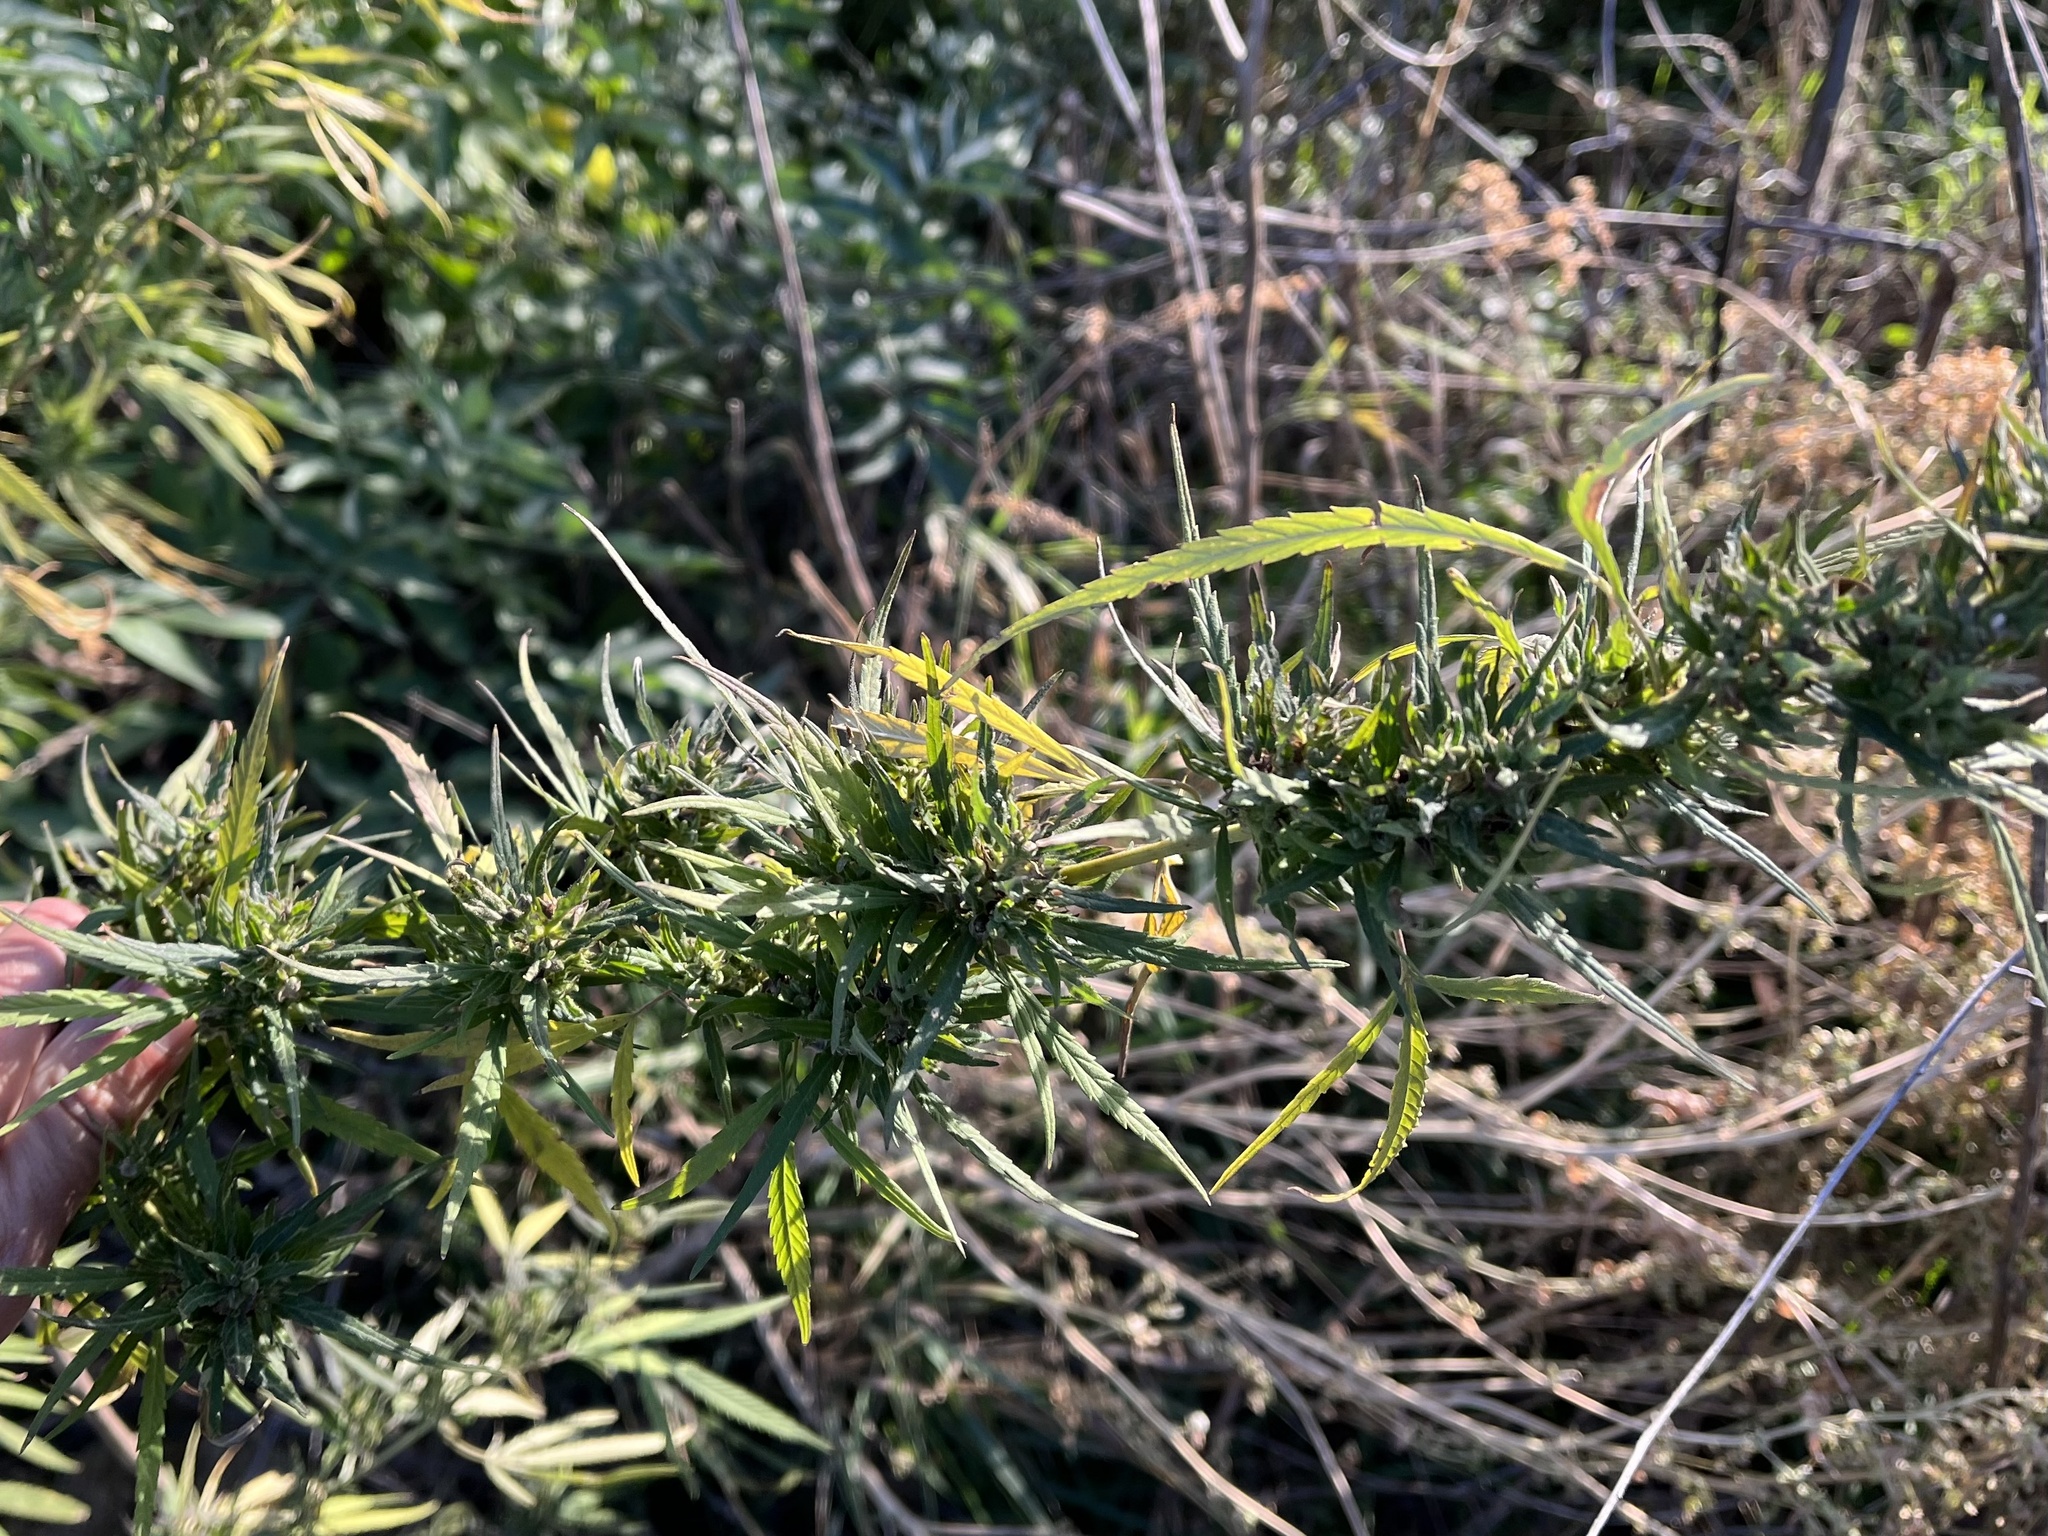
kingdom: Plantae
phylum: Tracheophyta
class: Magnoliopsida
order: Rosales
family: Cannabaceae
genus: Cannabis
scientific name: Cannabis sativa
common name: Hemp
